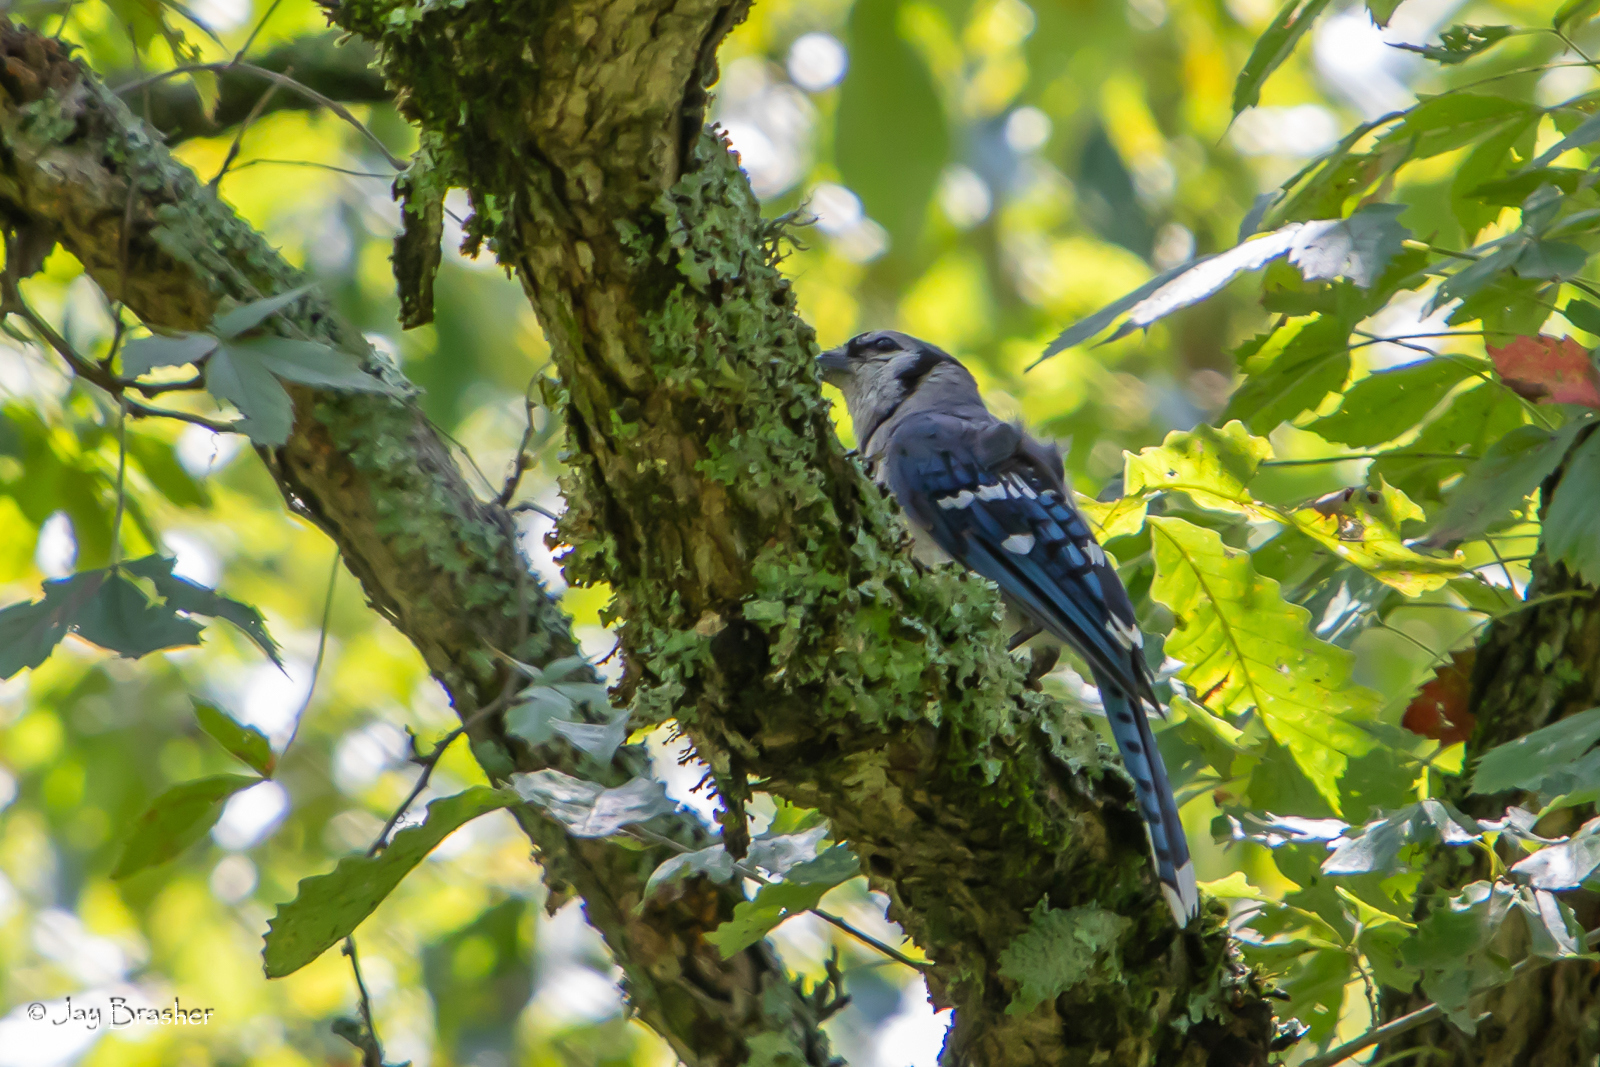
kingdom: Animalia
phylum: Chordata
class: Aves
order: Passeriformes
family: Corvidae
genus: Cyanocitta
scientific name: Cyanocitta cristata
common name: Blue jay
